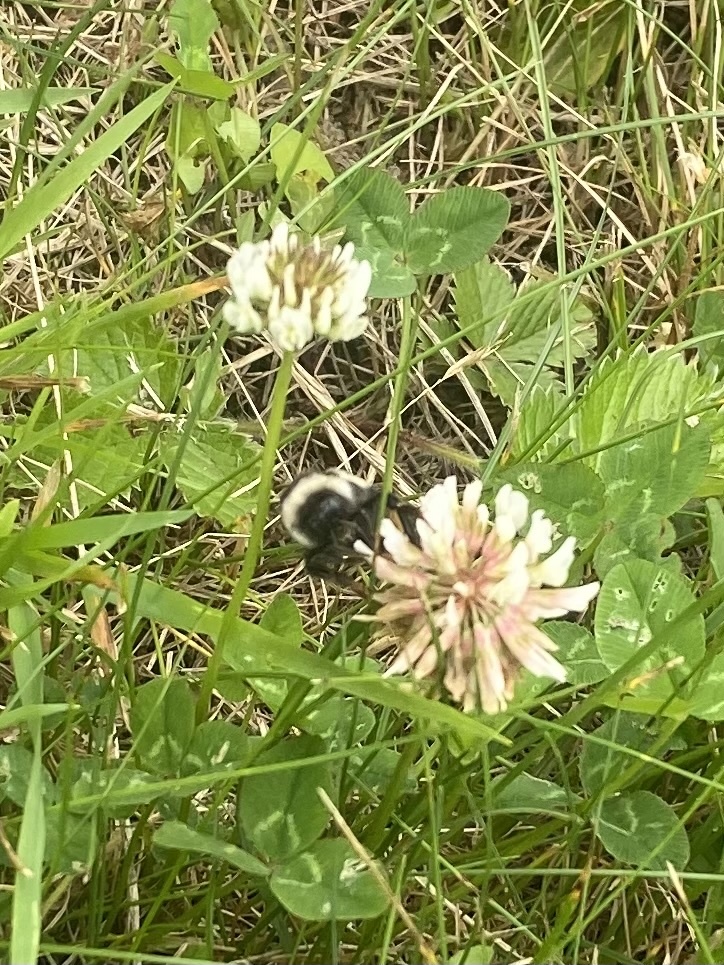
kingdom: Animalia
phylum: Arthropoda
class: Insecta
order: Hymenoptera
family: Apidae
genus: Bombus
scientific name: Bombus hypocrita
